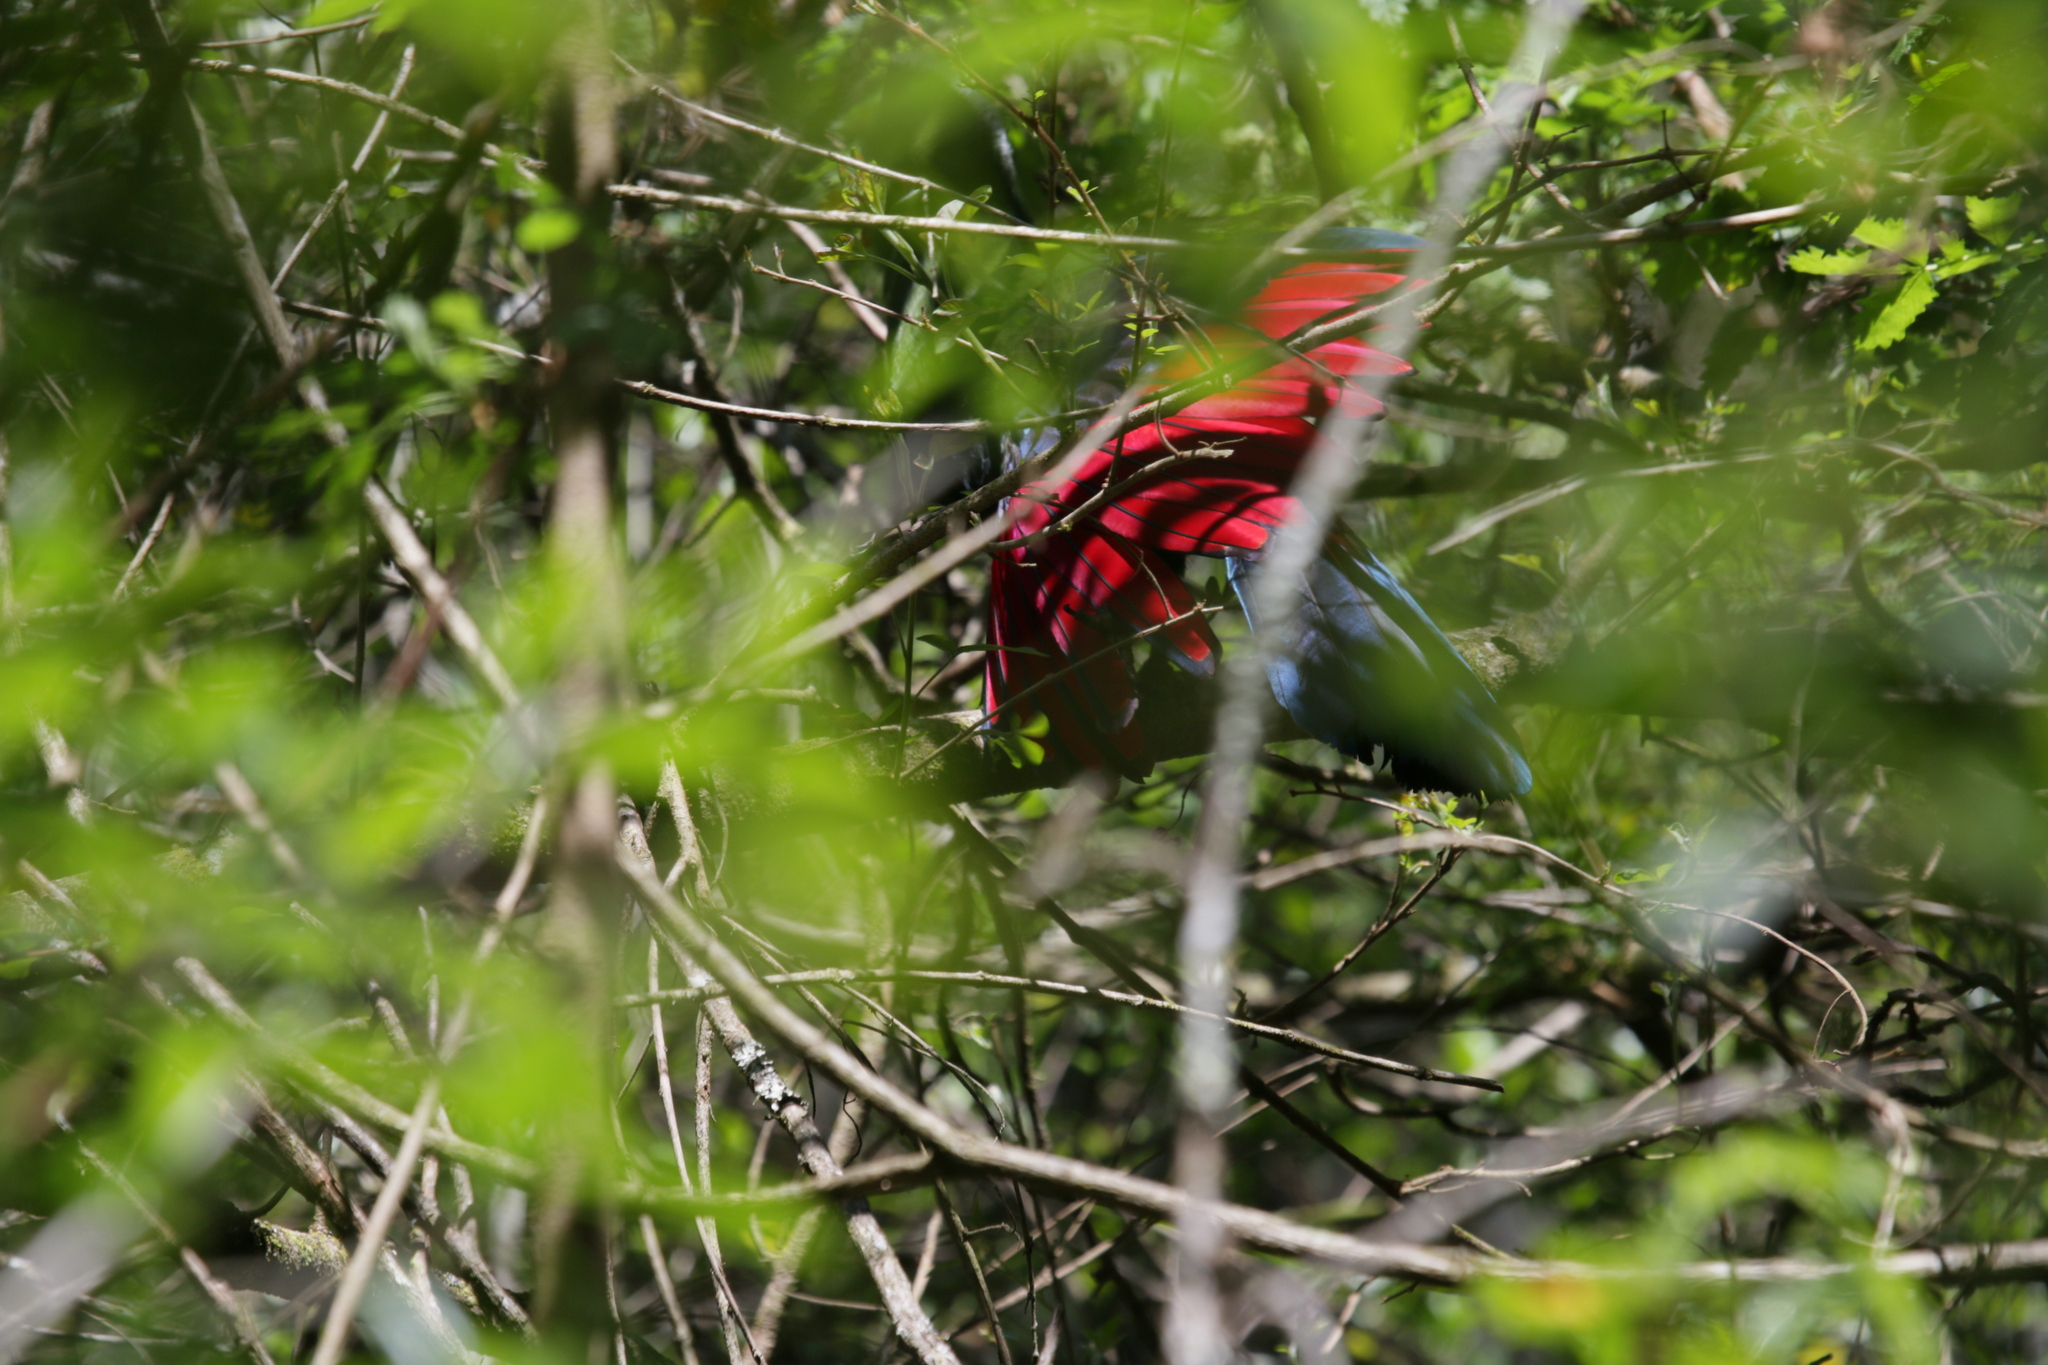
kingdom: Animalia
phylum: Chordata
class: Aves
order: Musophagiformes
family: Musophagidae
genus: Tauraco
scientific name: Tauraco corythaix
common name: Knysna turaco
